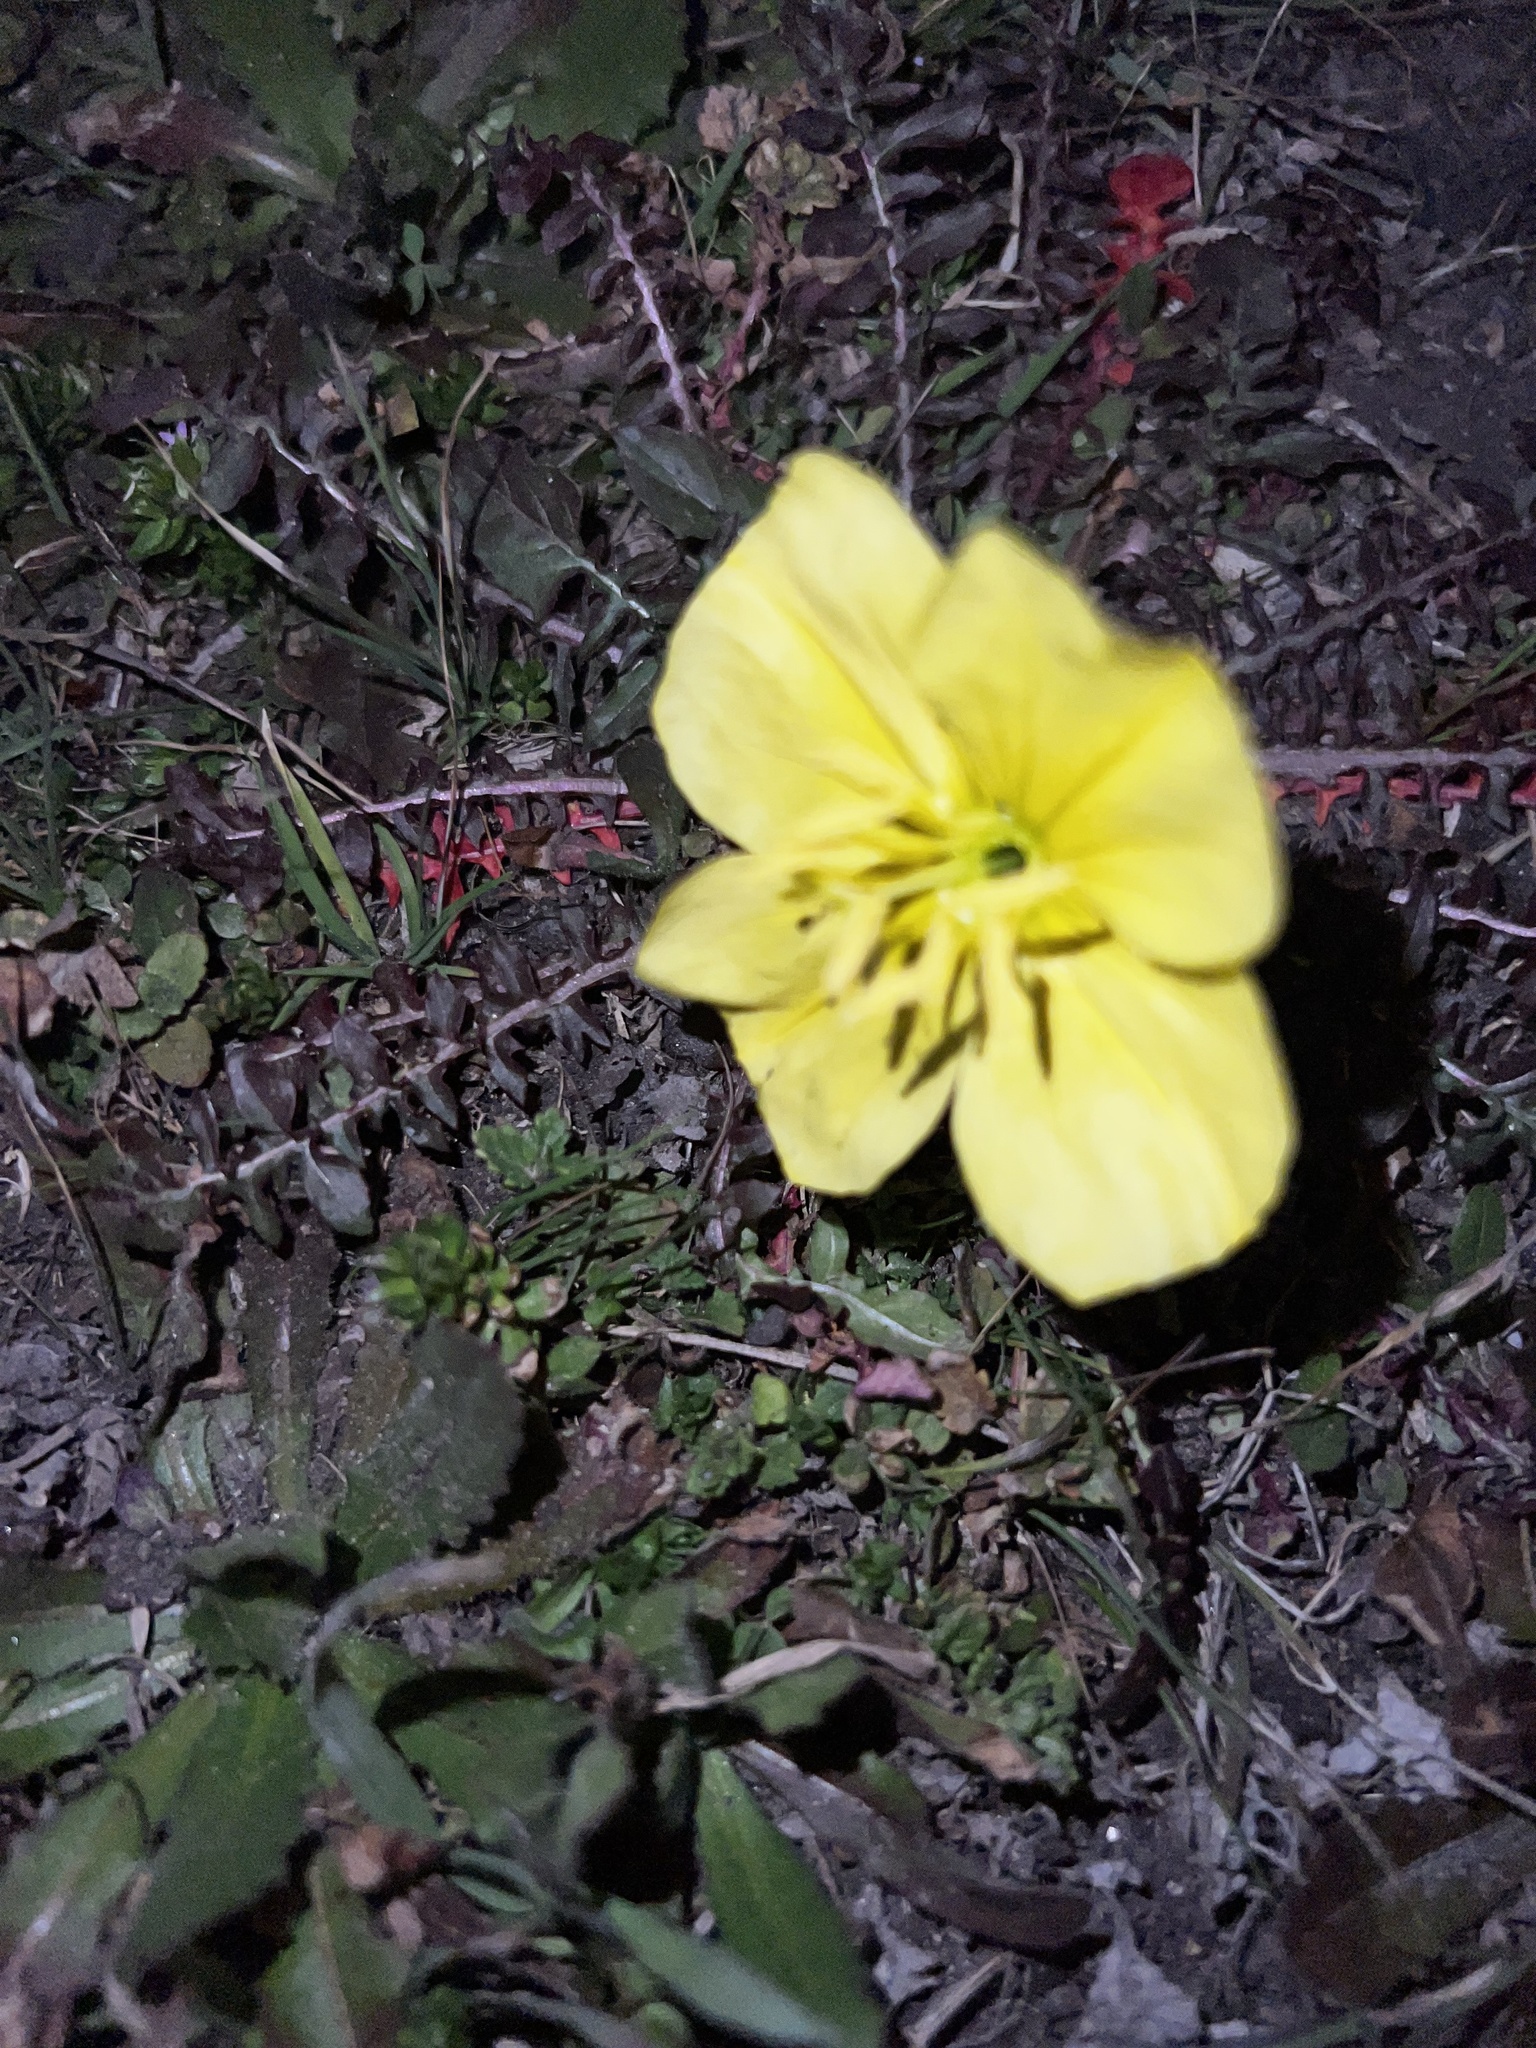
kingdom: Plantae
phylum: Tracheophyta
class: Magnoliopsida
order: Myrtales
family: Onagraceae
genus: Oenothera
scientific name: Oenothera triloba
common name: Sessile evening-primrose
